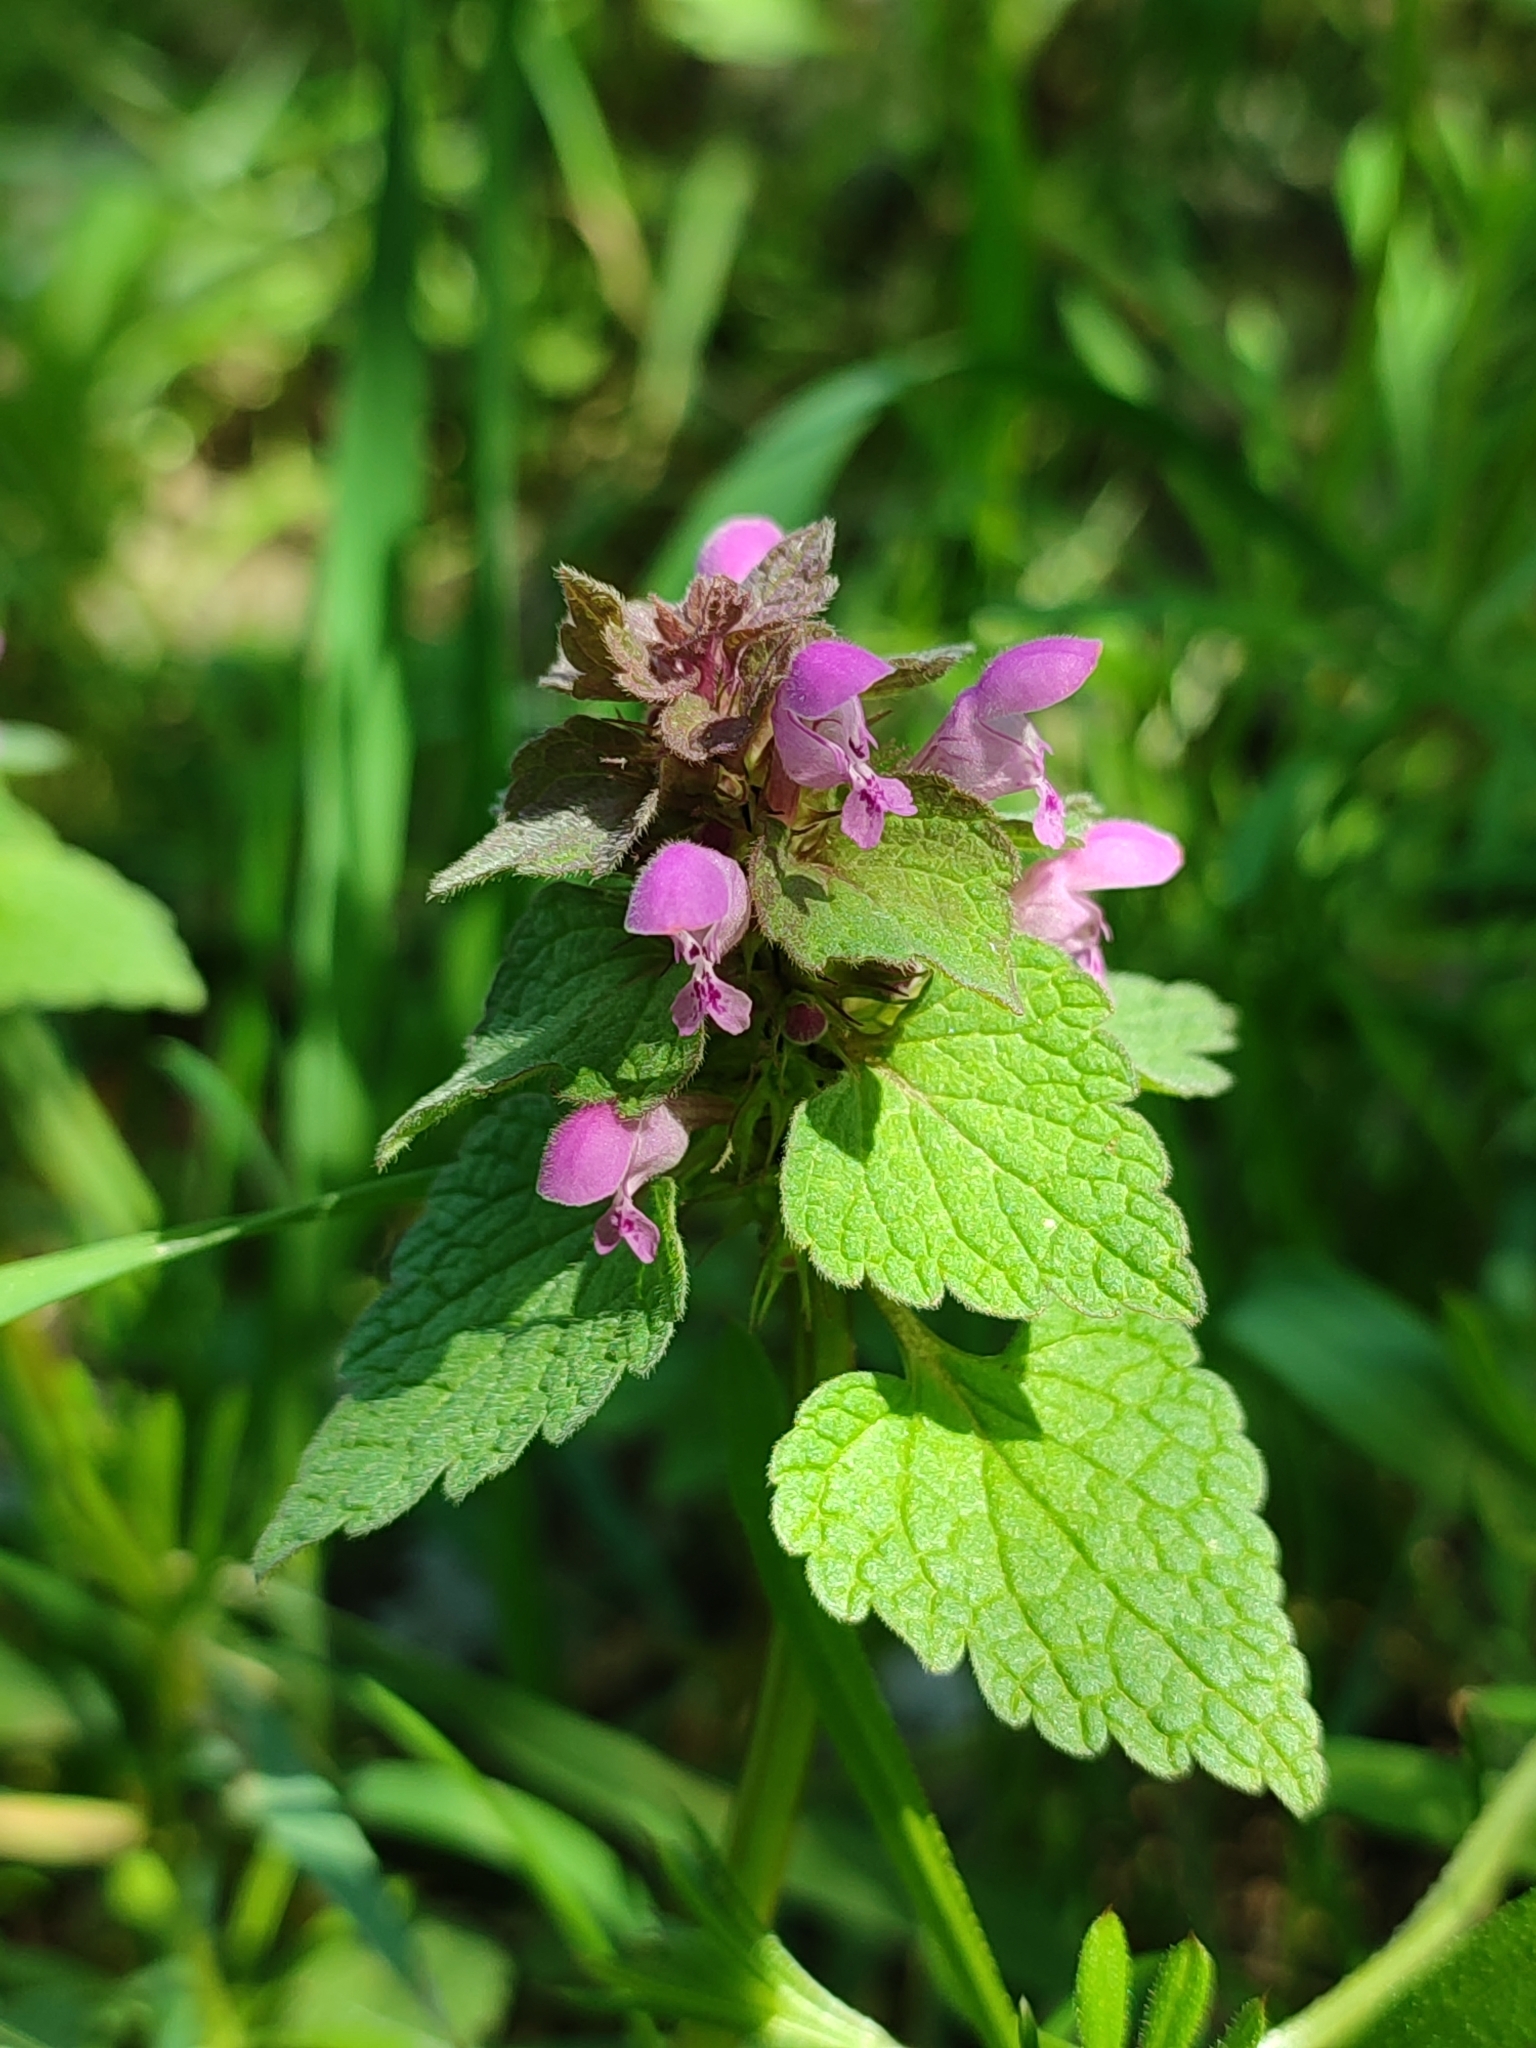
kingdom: Plantae
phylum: Tracheophyta
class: Magnoliopsida
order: Lamiales
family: Lamiaceae
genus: Lamium
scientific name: Lamium purpureum
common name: Red dead-nettle
